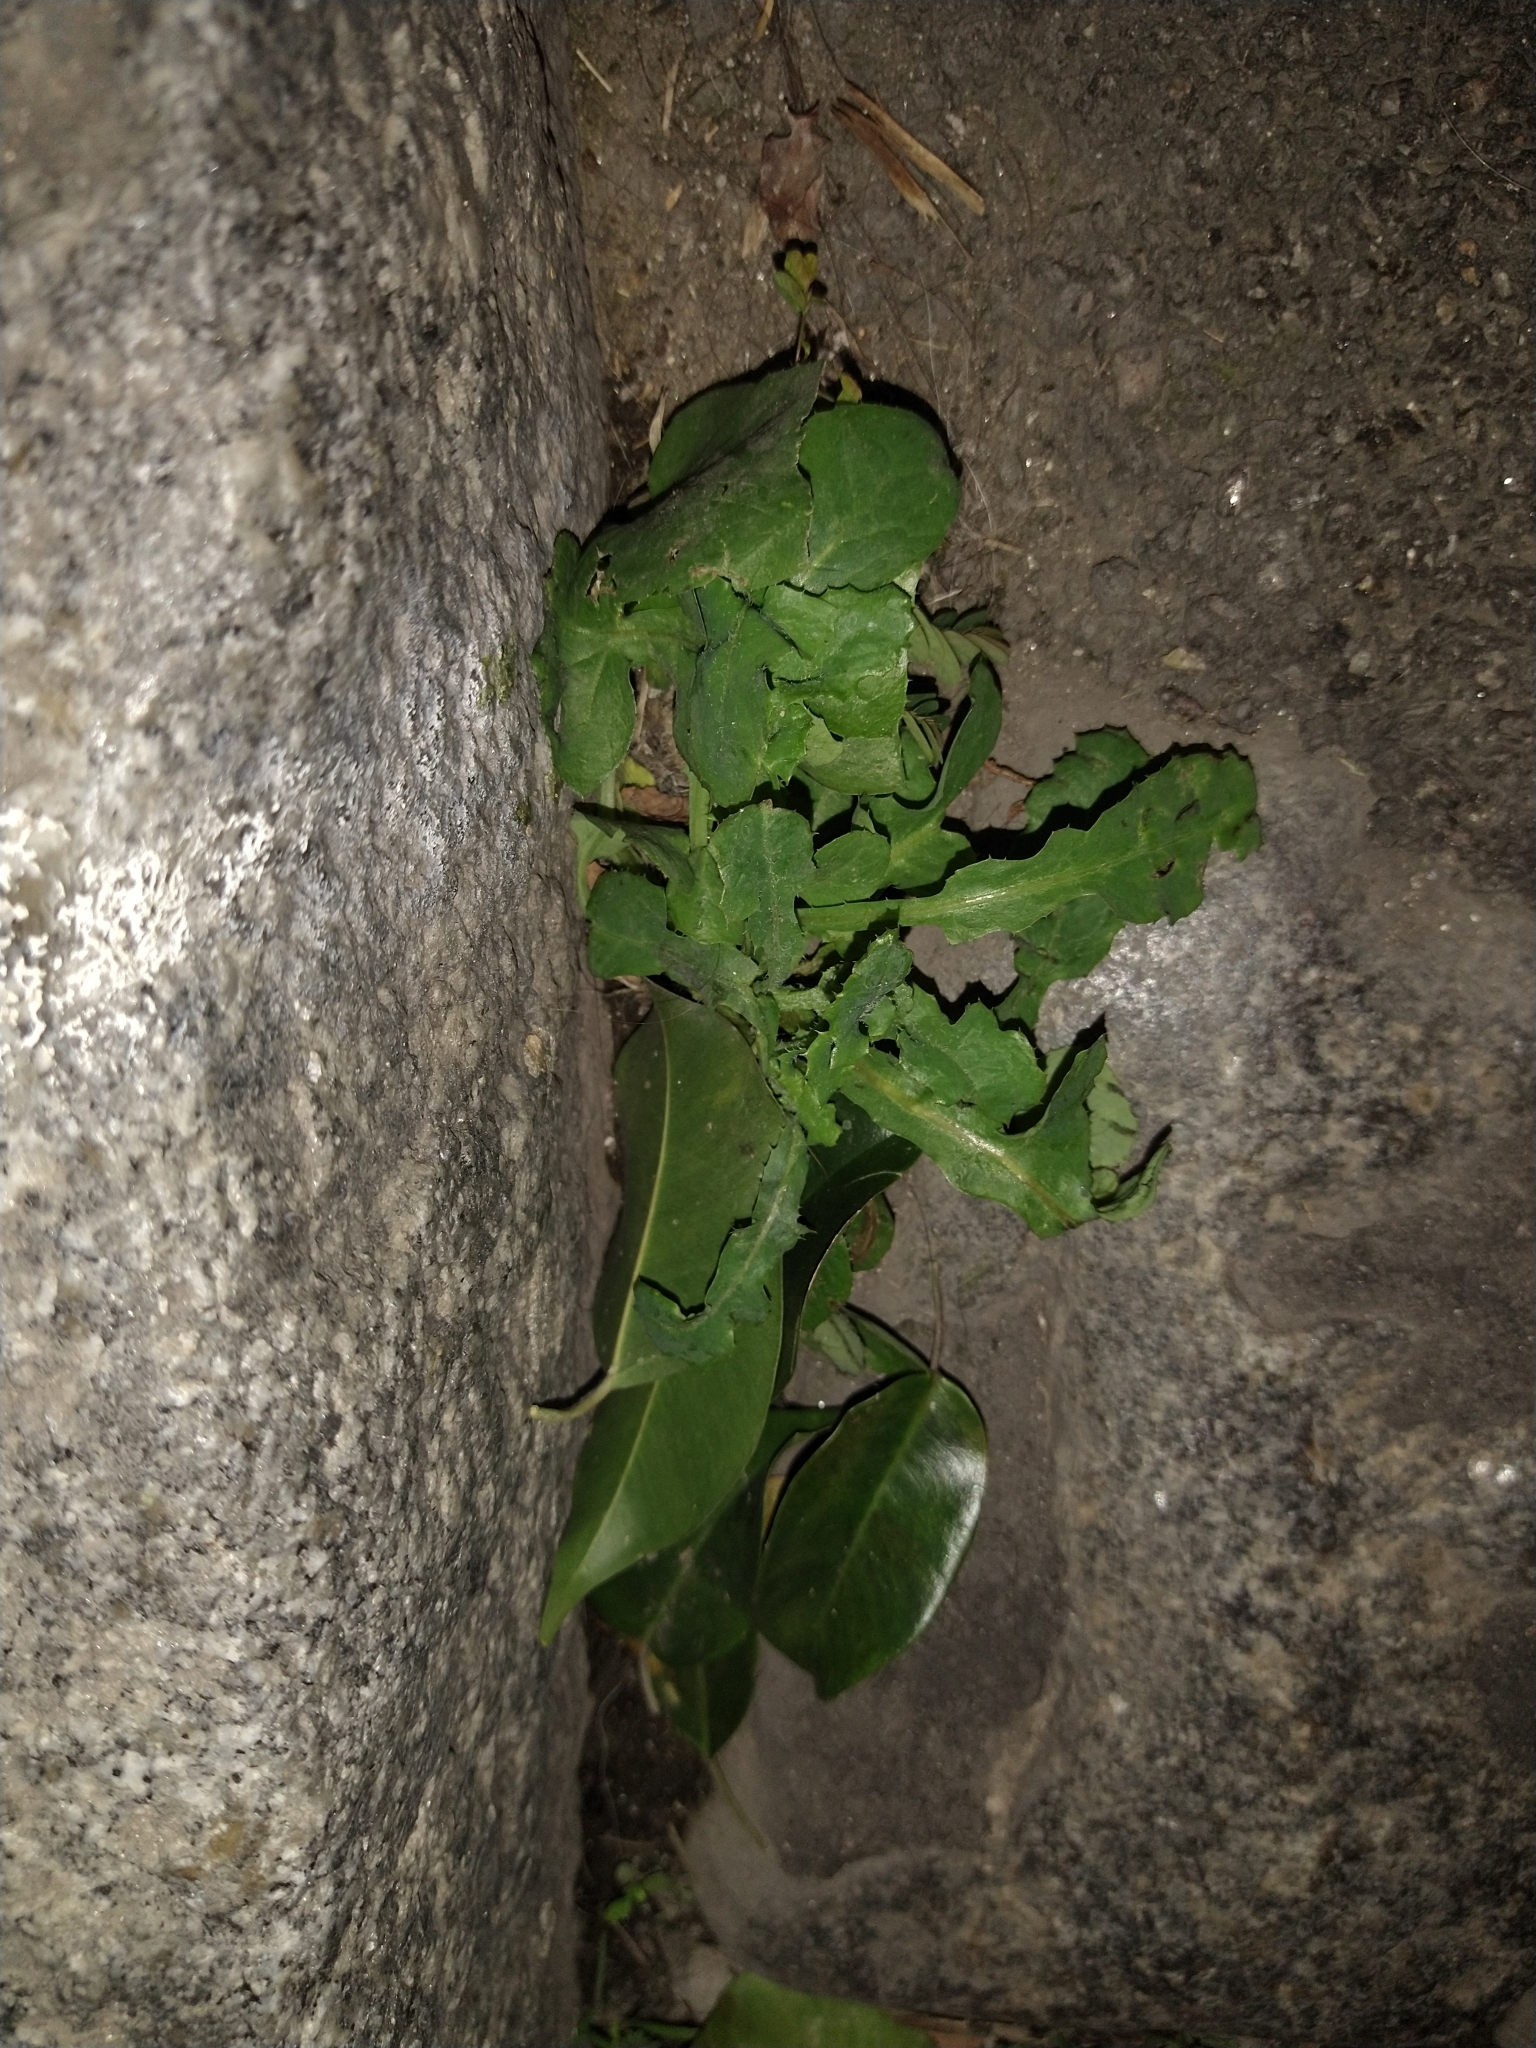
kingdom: Plantae
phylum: Tracheophyta
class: Magnoliopsida
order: Asterales
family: Asteraceae
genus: Sonchus
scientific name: Sonchus oleraceus
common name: Common sowthistle
